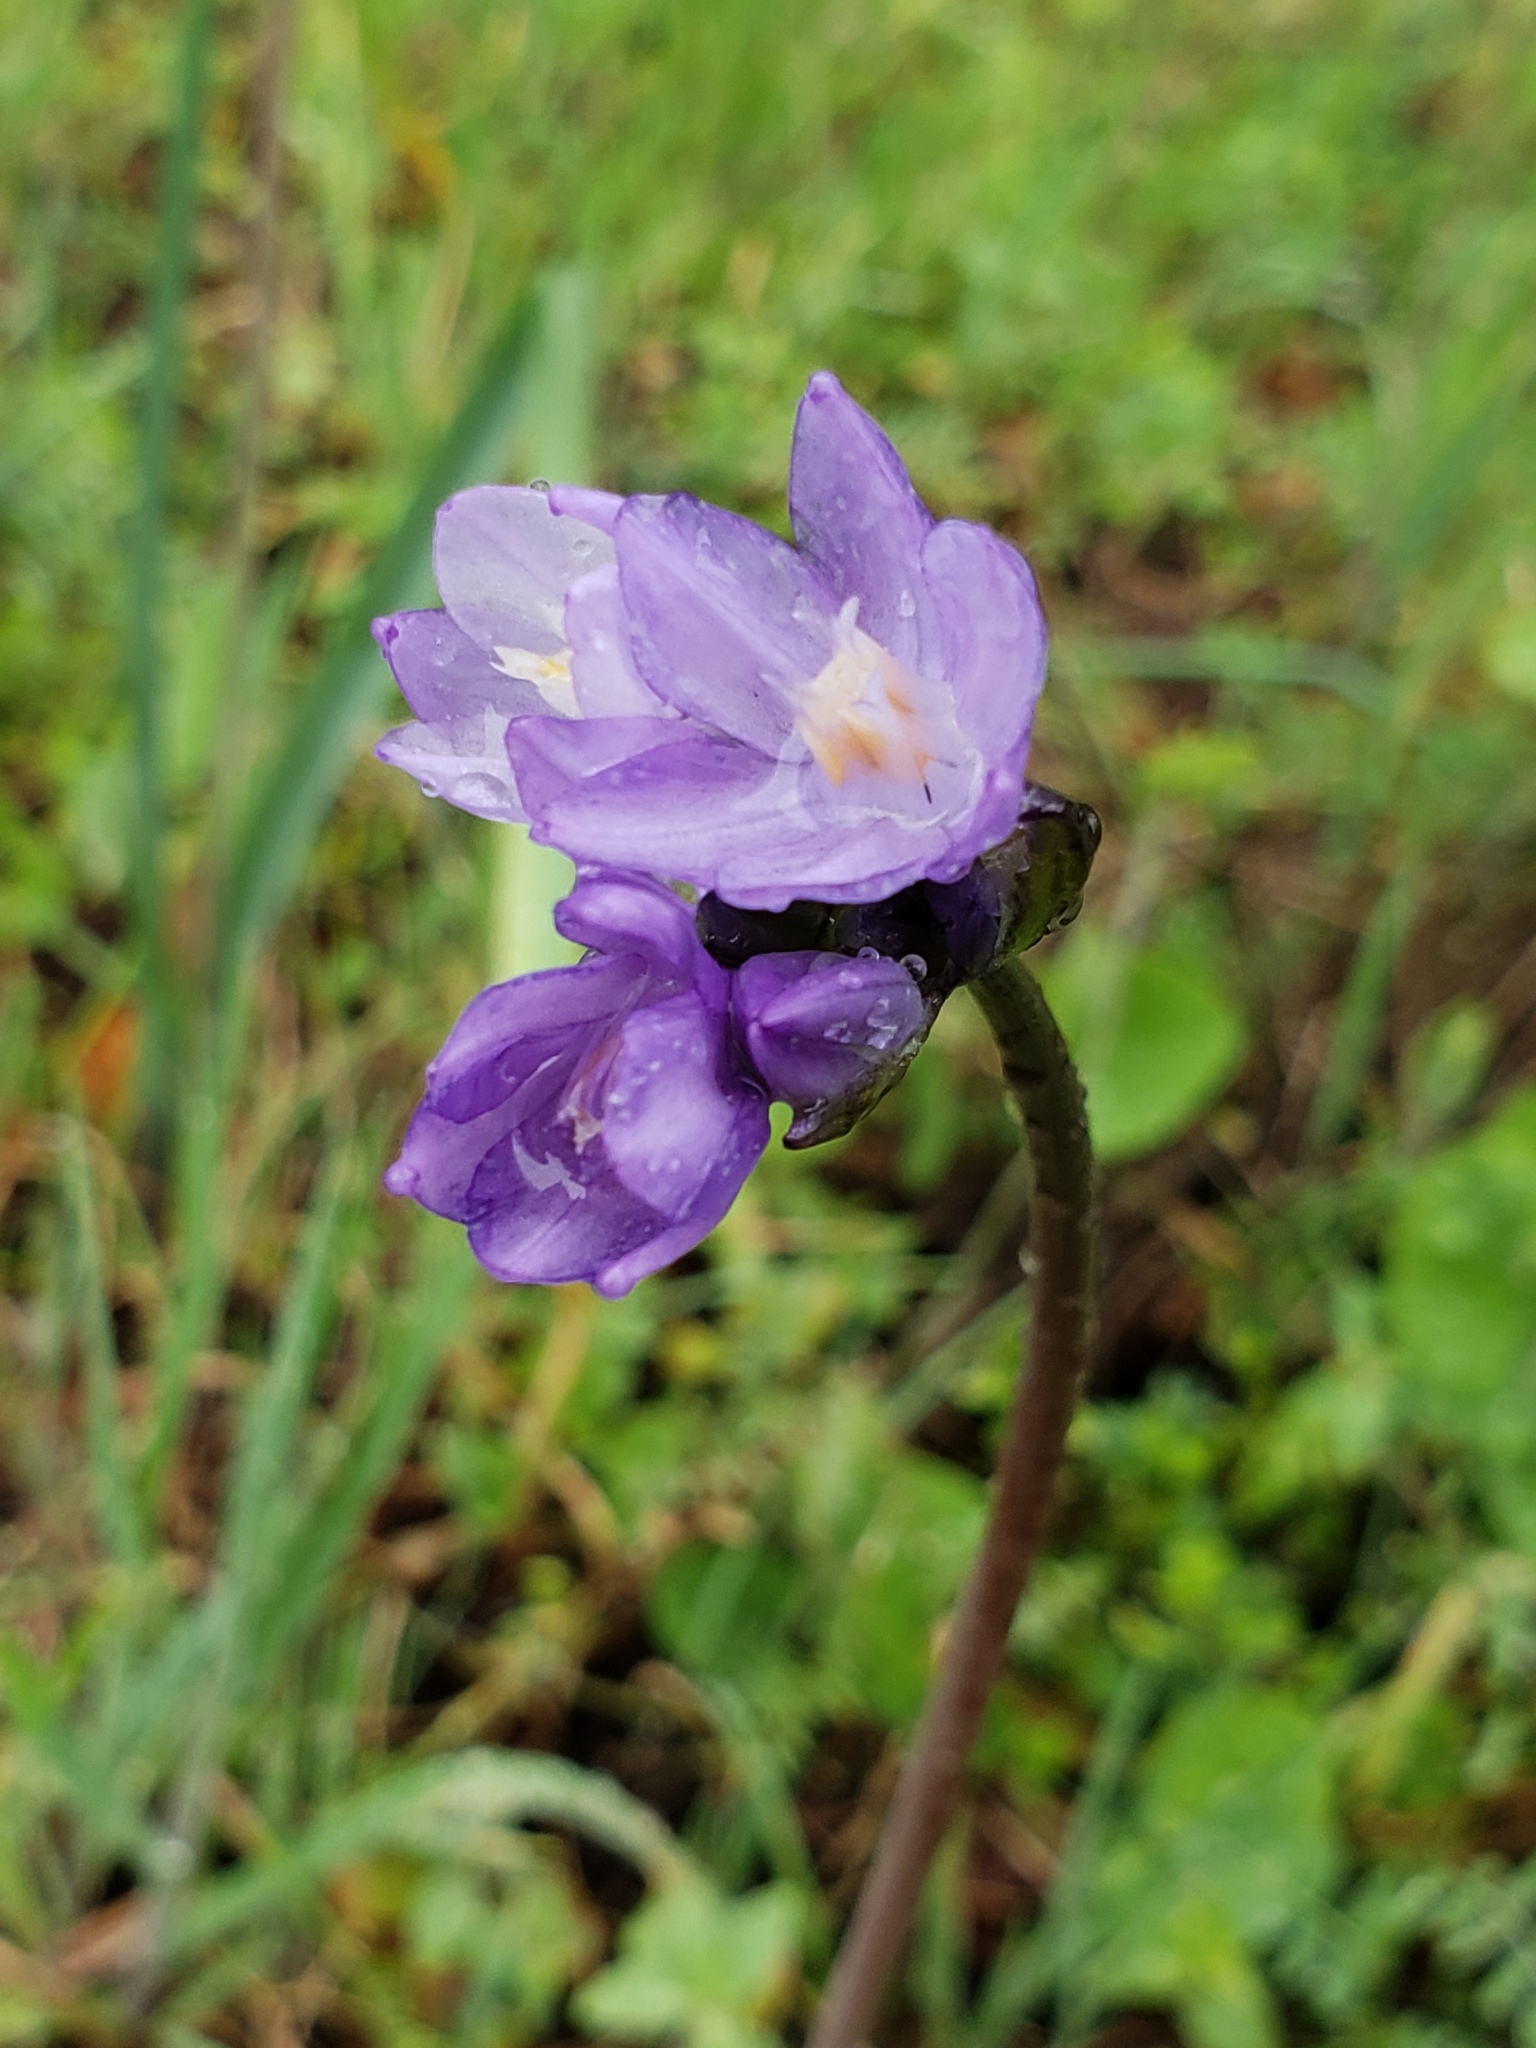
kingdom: Plantae
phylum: Tracheophyta
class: Liliopsida
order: Asparagales
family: Asparagaceae
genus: Dipterostemon
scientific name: Dipterostemon capitatus
